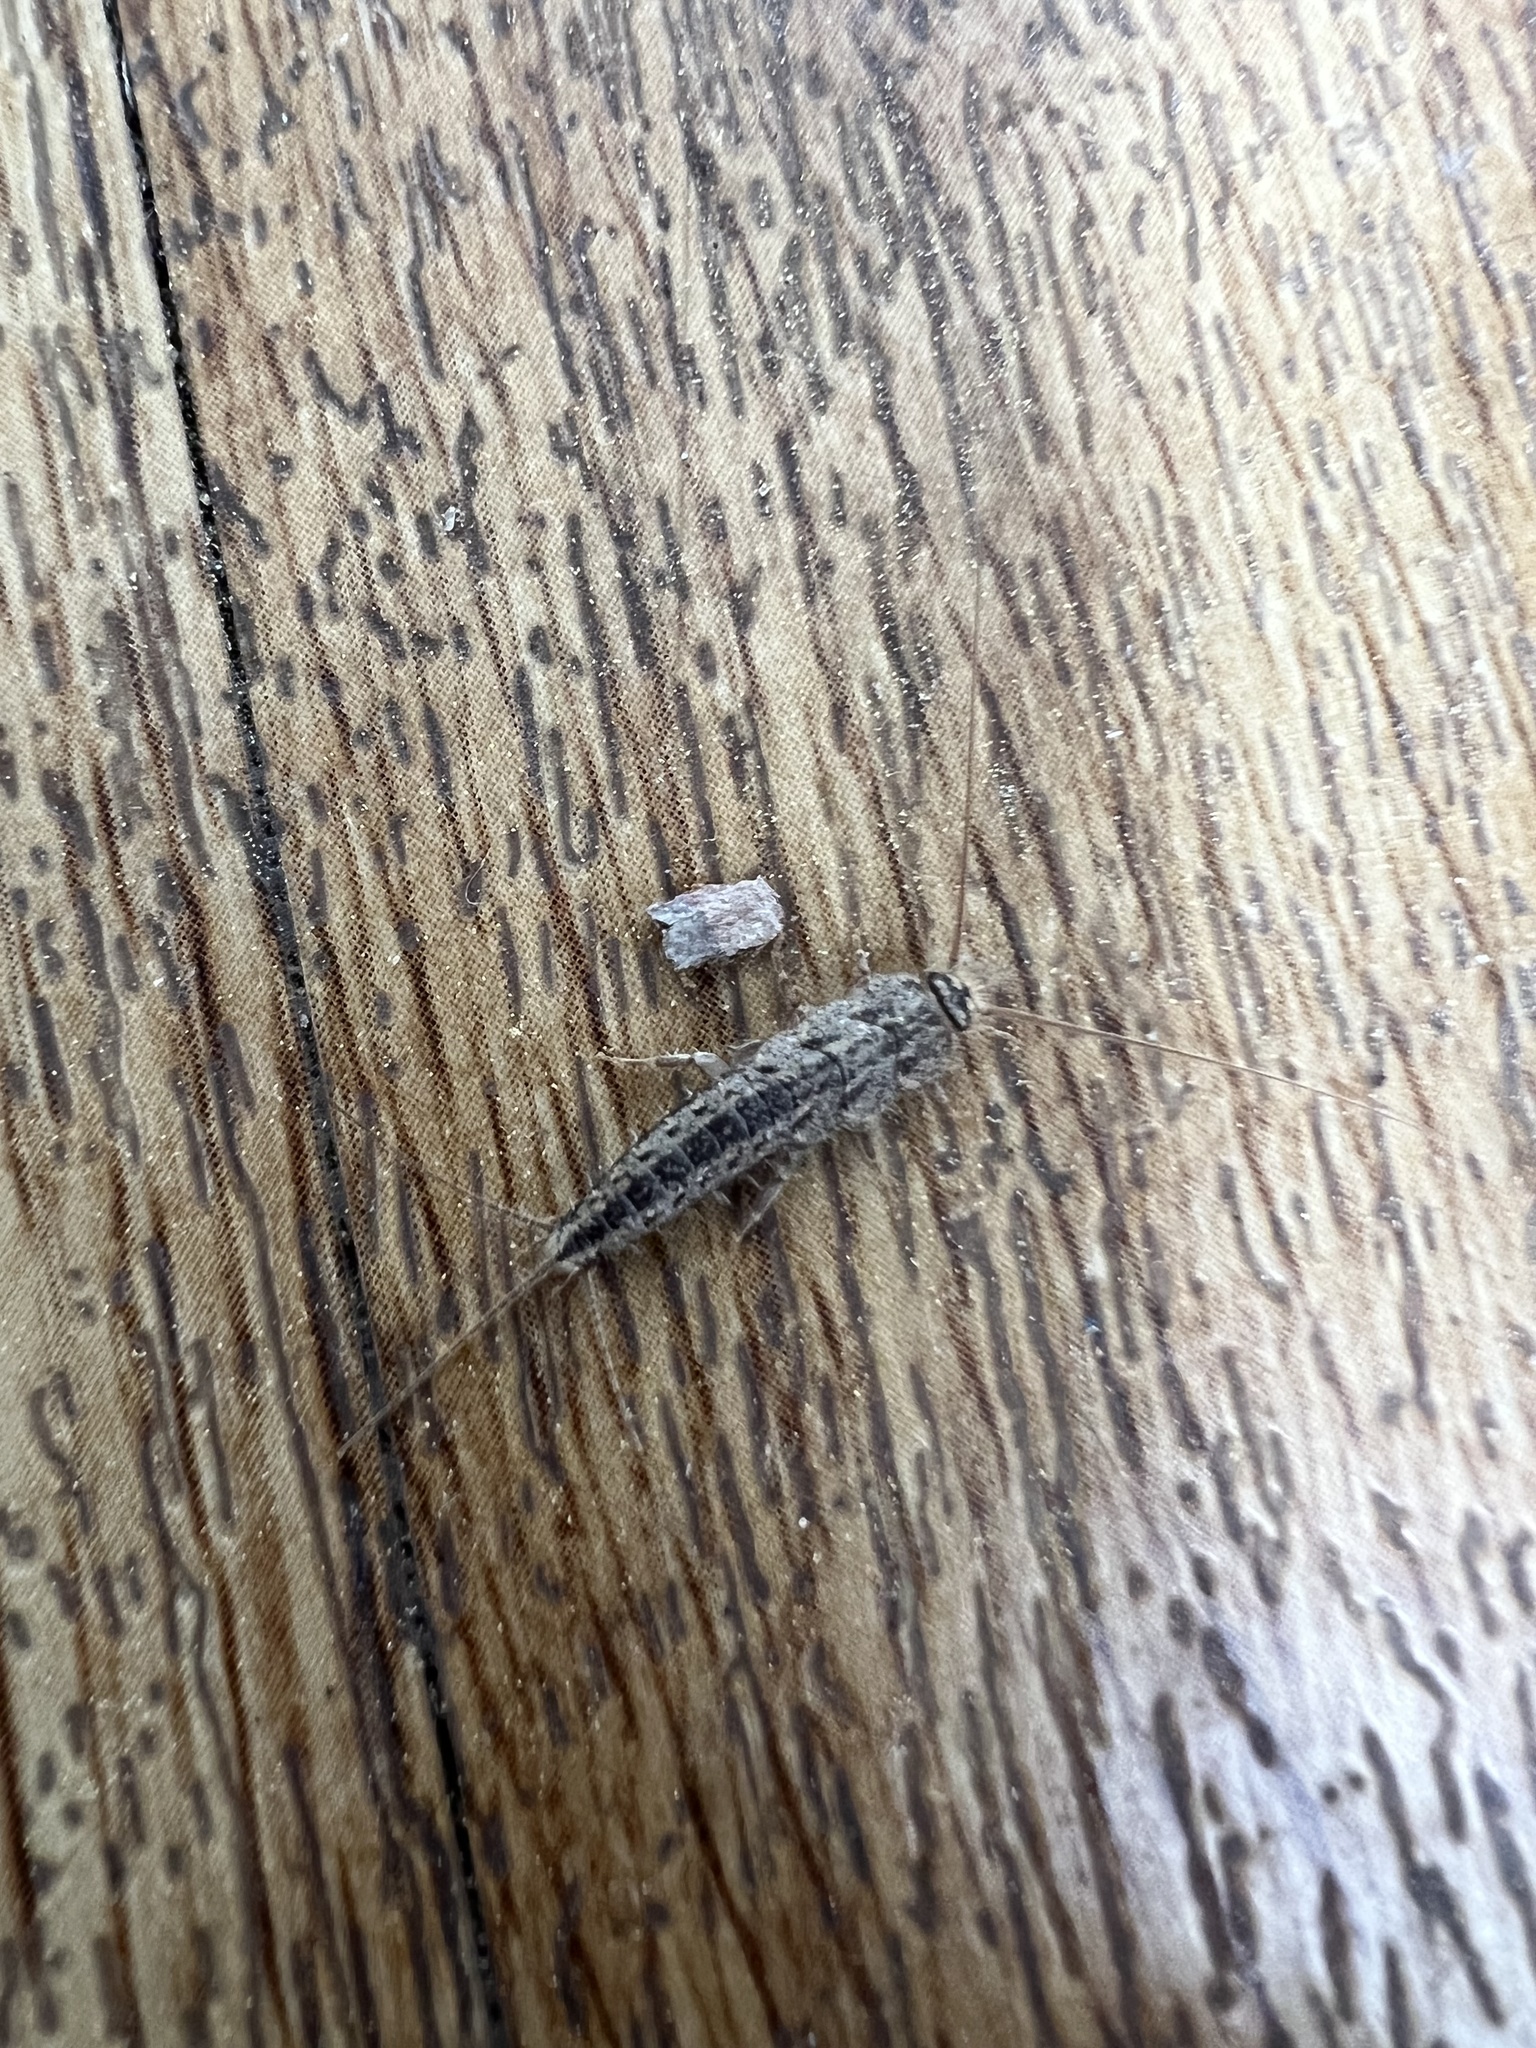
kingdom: Animalia
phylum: Arthropoda
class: Insecta
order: Zygentoma
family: Lepismatidae
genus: Ctenolepisma
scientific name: Ctenolepisma lineata
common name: Four-lined silverfish
